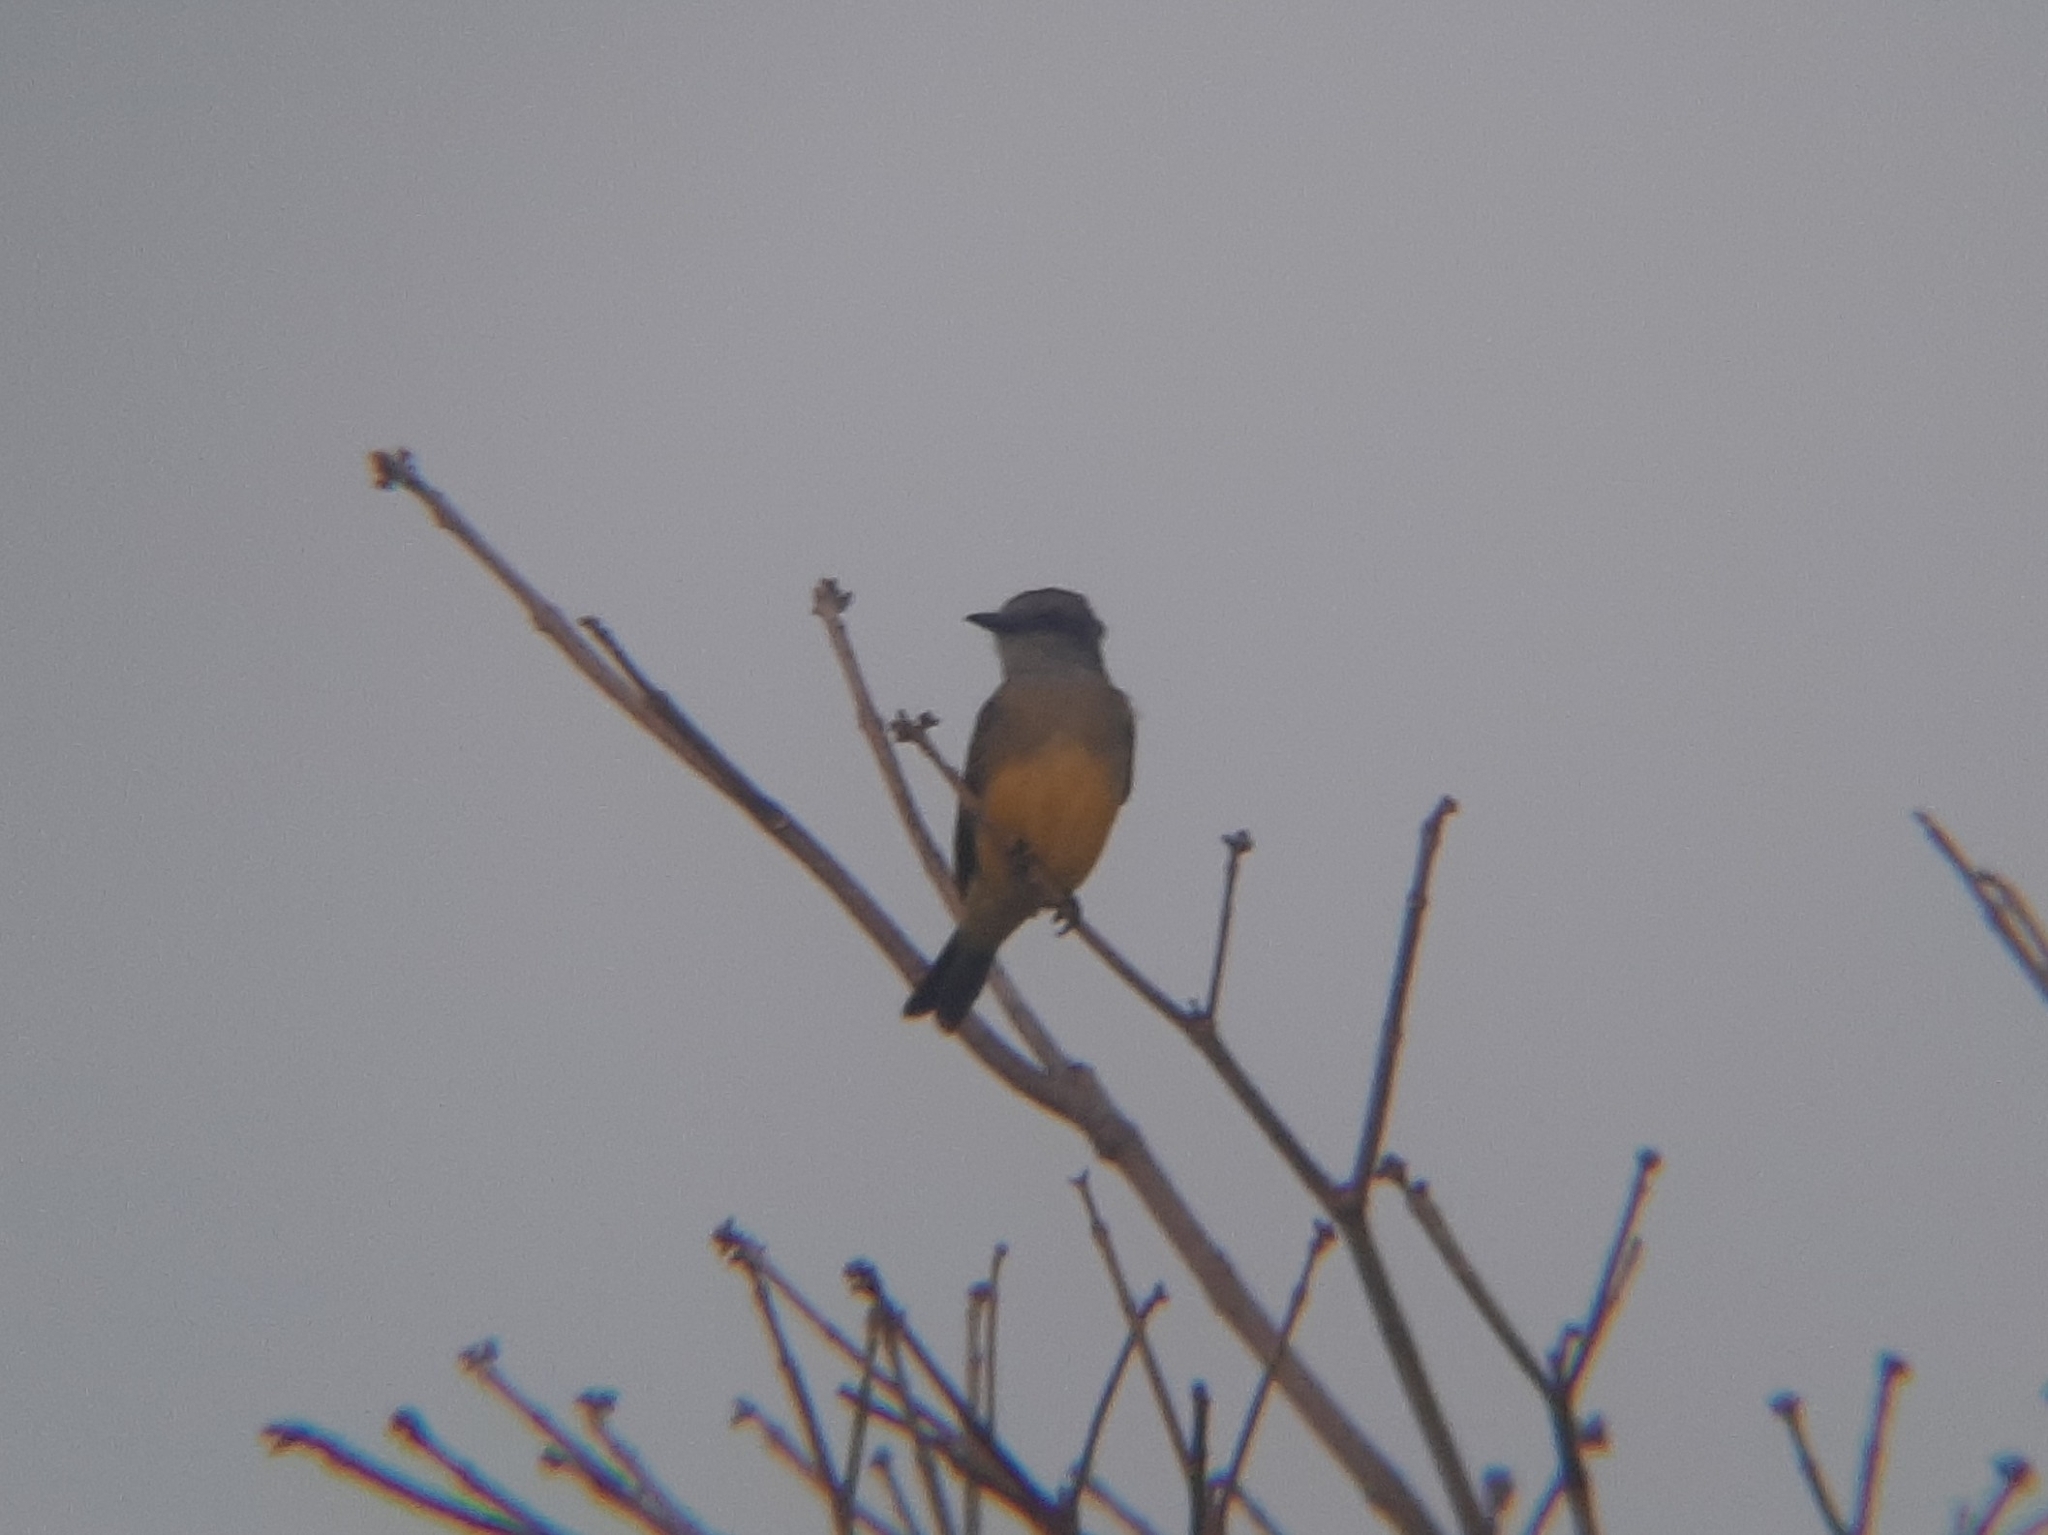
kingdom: Animalia
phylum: Chordata
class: Aves
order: Passeriformes
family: Tyrannidae
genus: Tyrannus
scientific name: Tyrannus melancholicus
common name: Tropical kingbird
